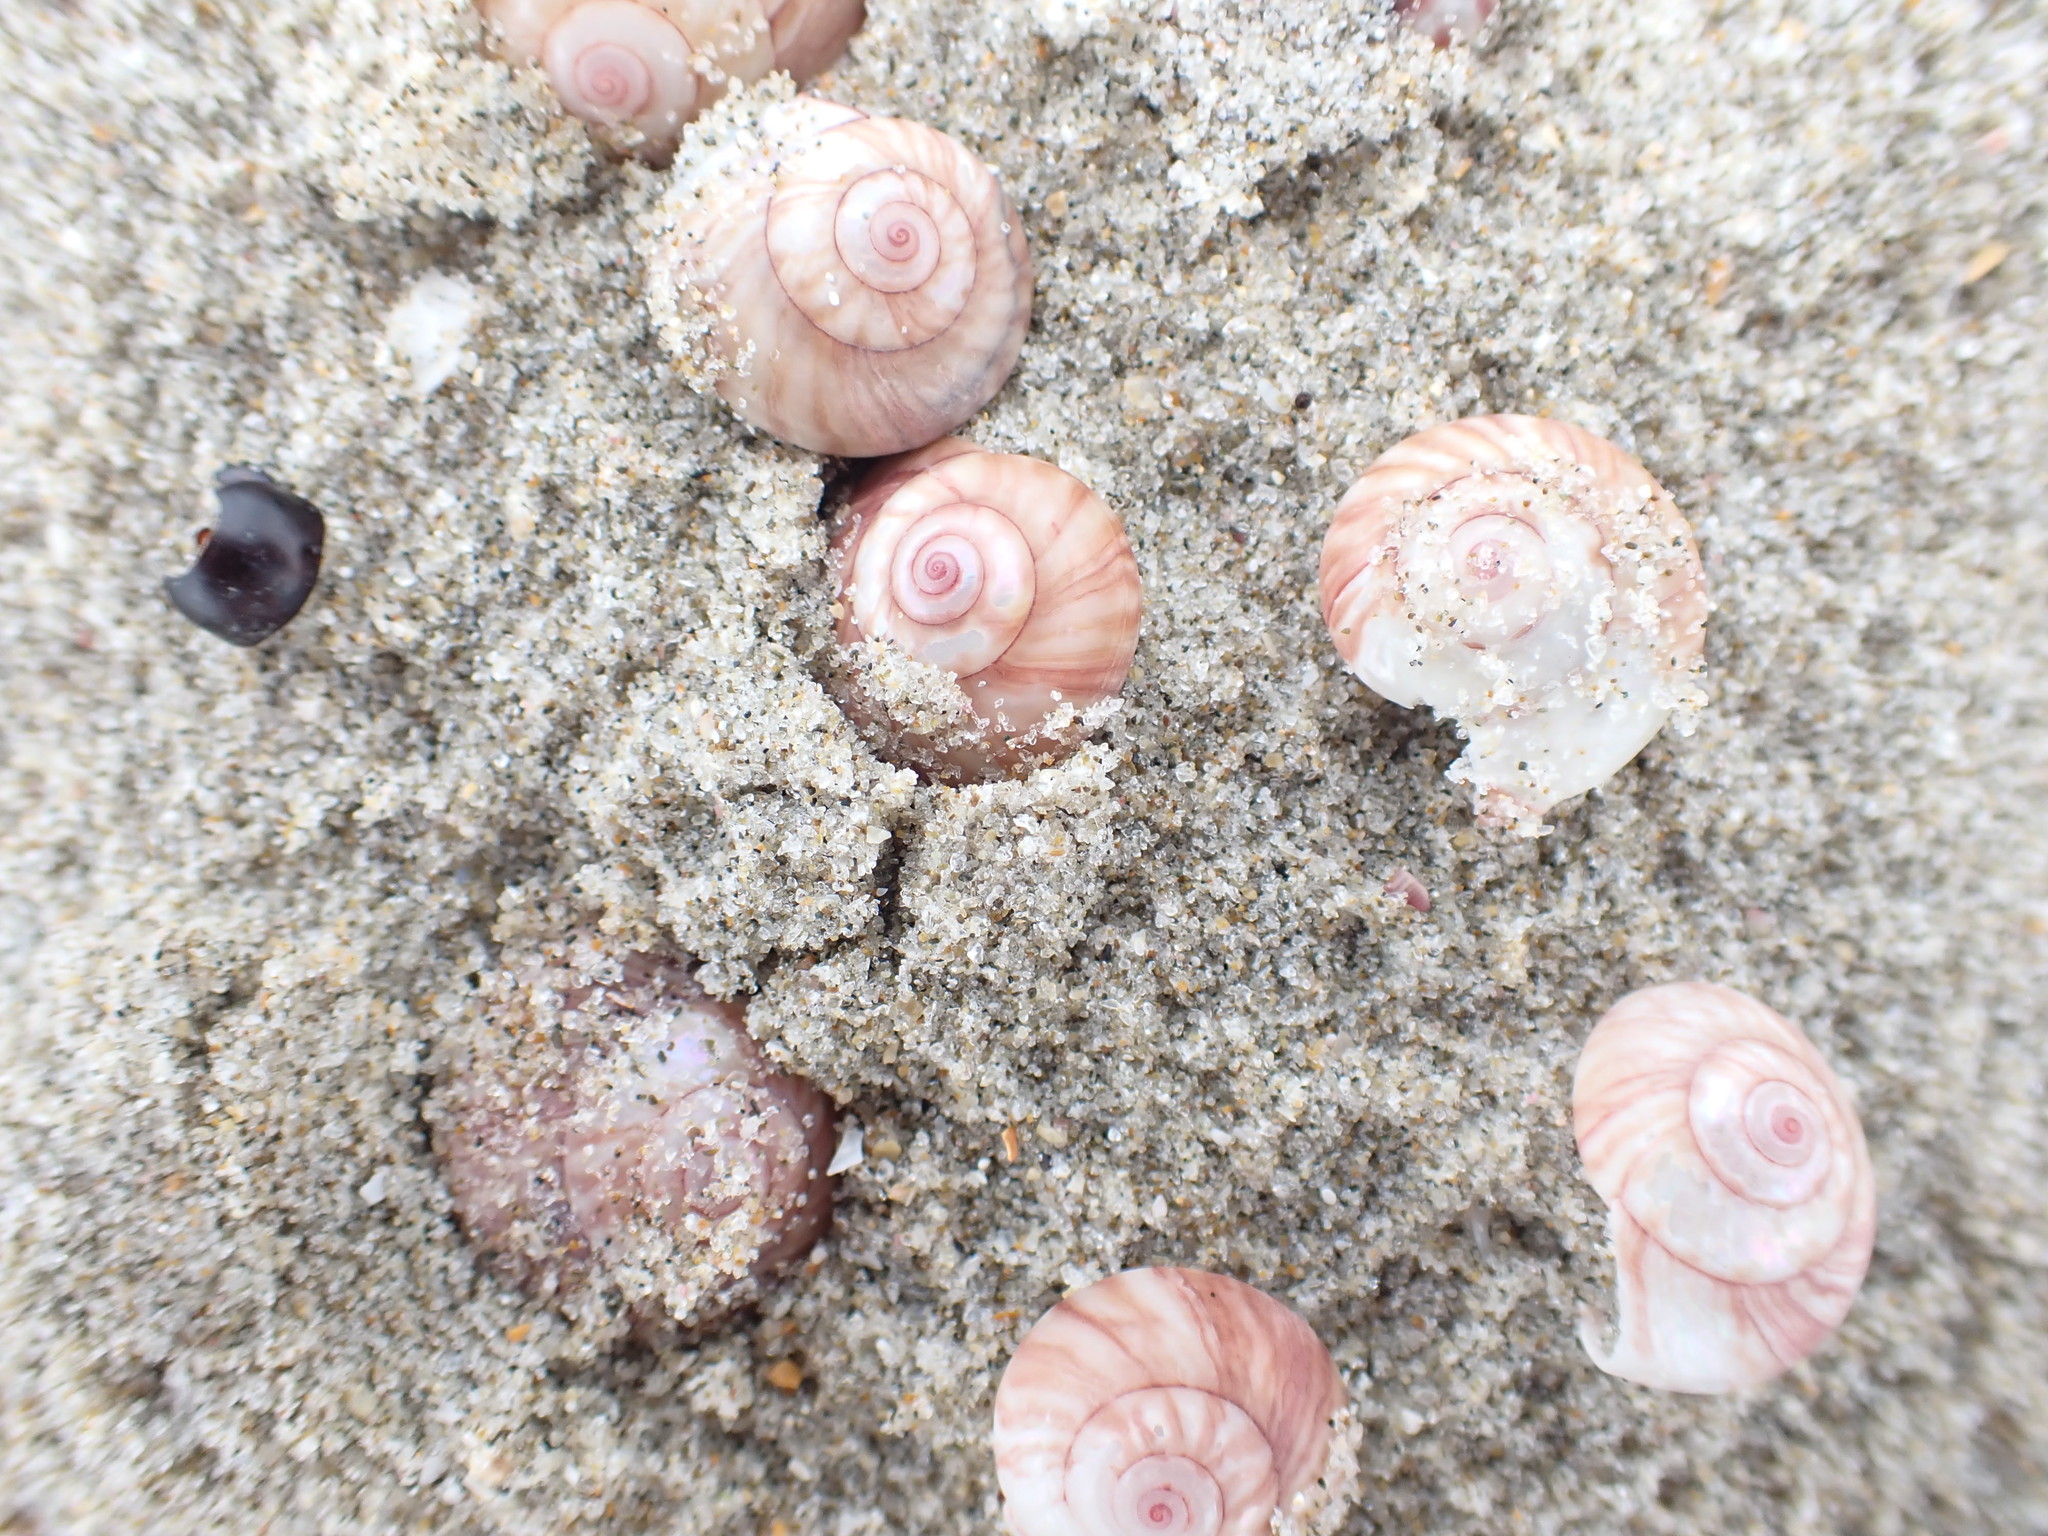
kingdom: Animalia
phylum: Mollusca
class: Gastropoda
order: Trochida
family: Trochidae
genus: Zethalia
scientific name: Zethalia zelandica
